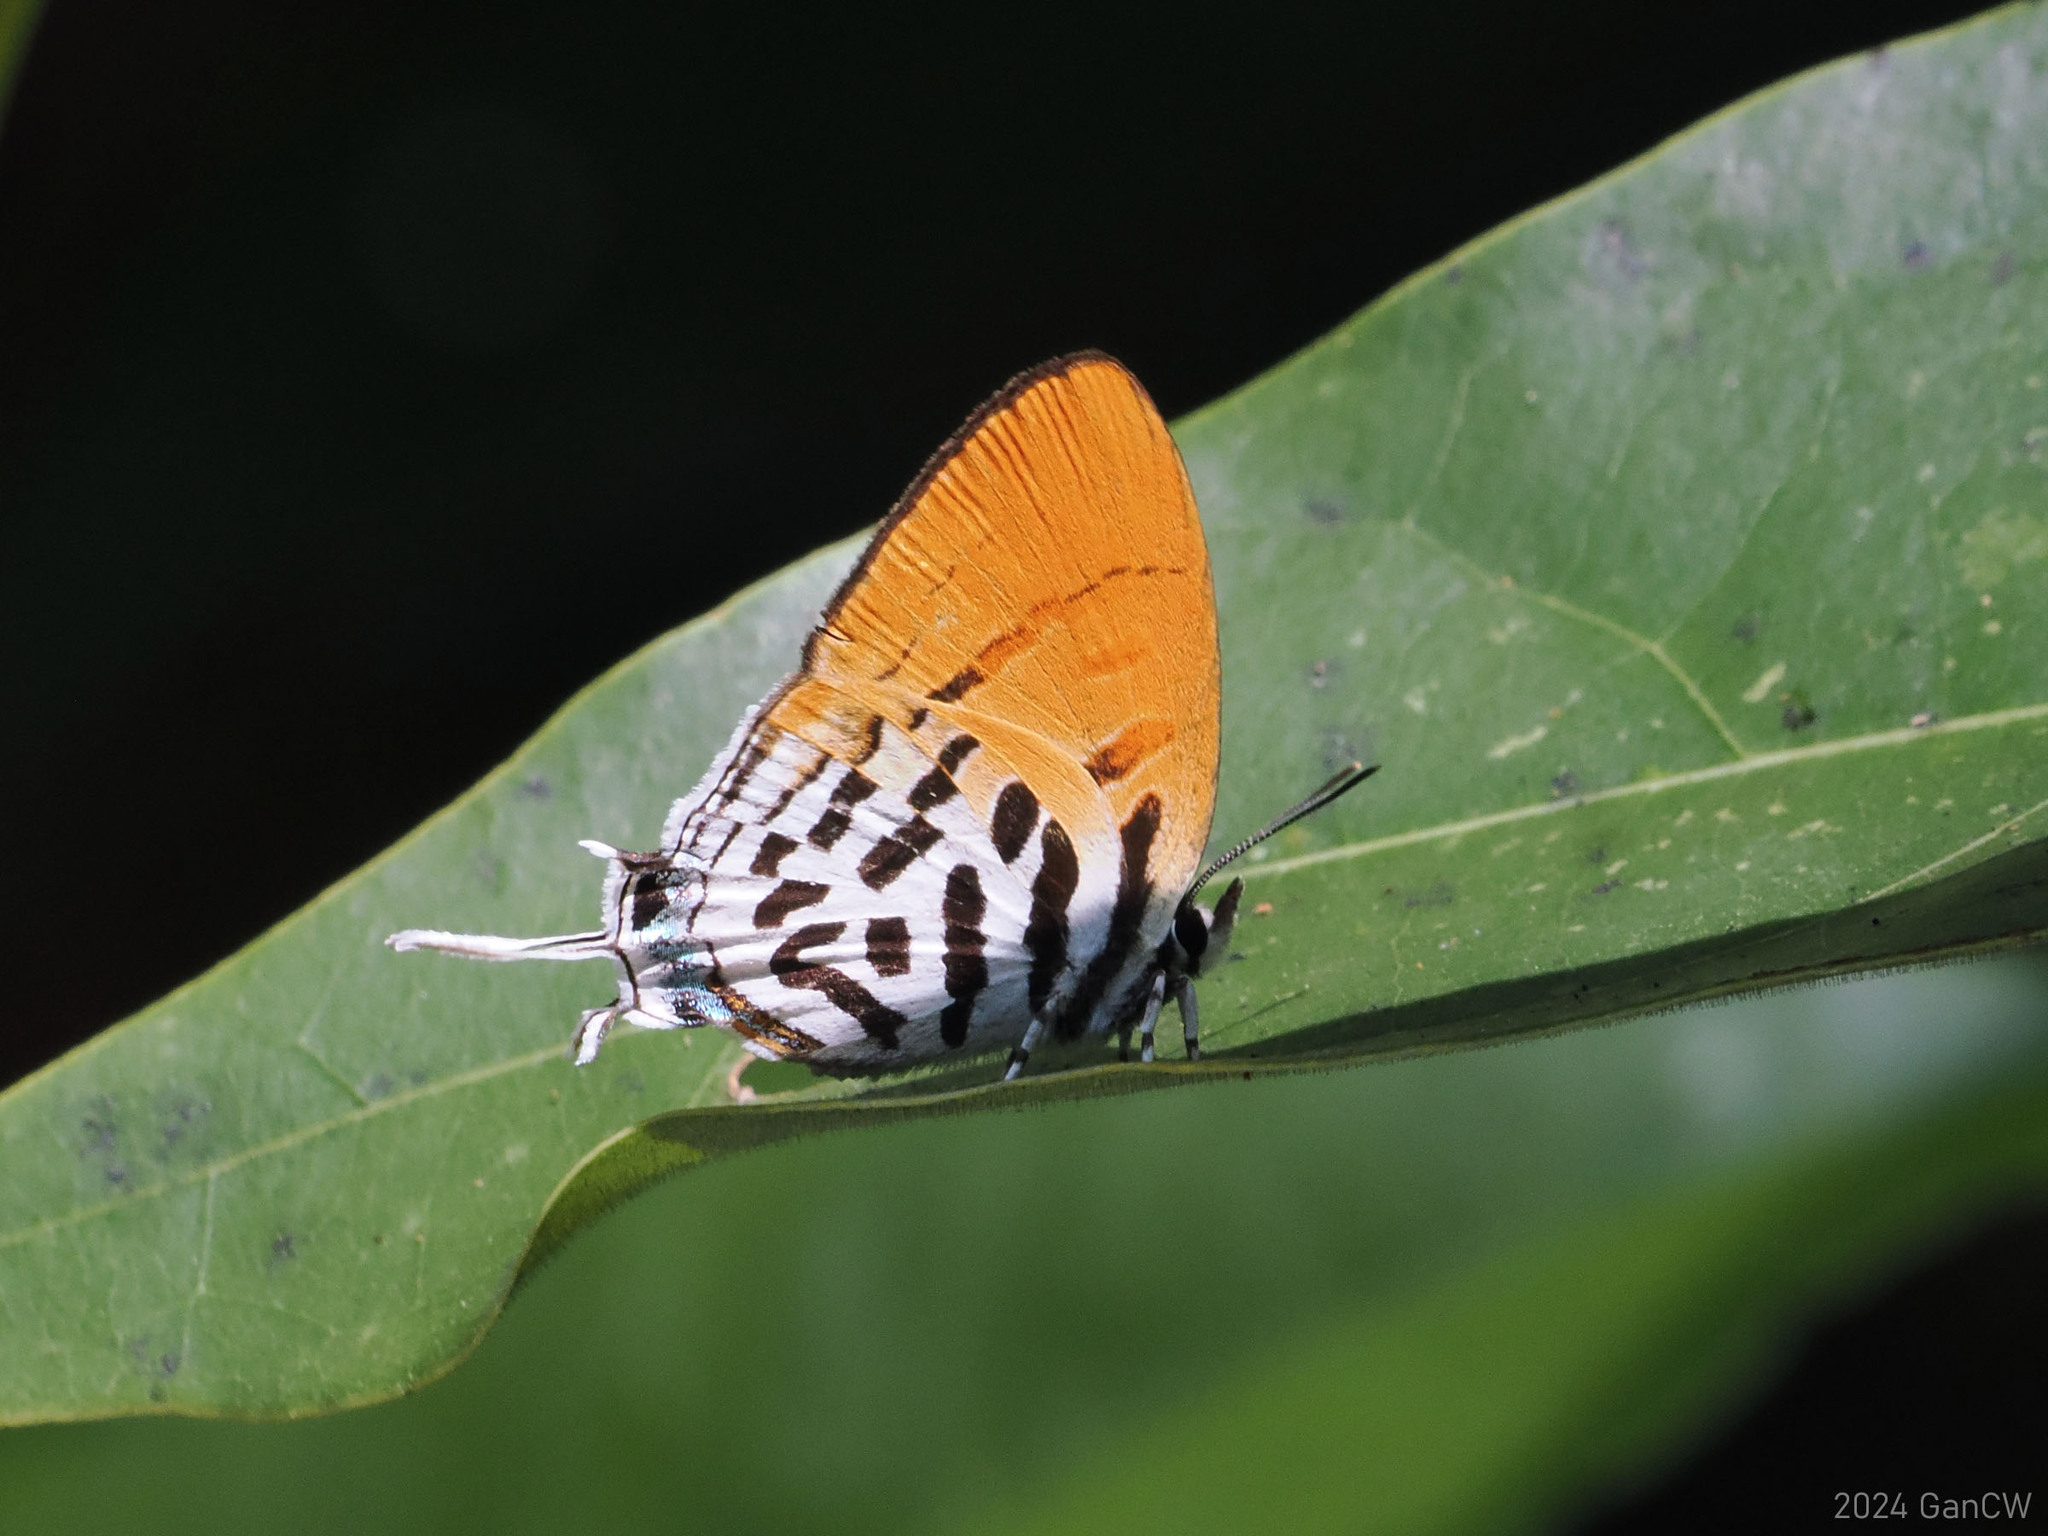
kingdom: Animalia
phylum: Arthropoda
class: Insecta
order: Lepidoptera
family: Lycaenidae
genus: Drupadia
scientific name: Drupadia ravindra
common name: Common posy
